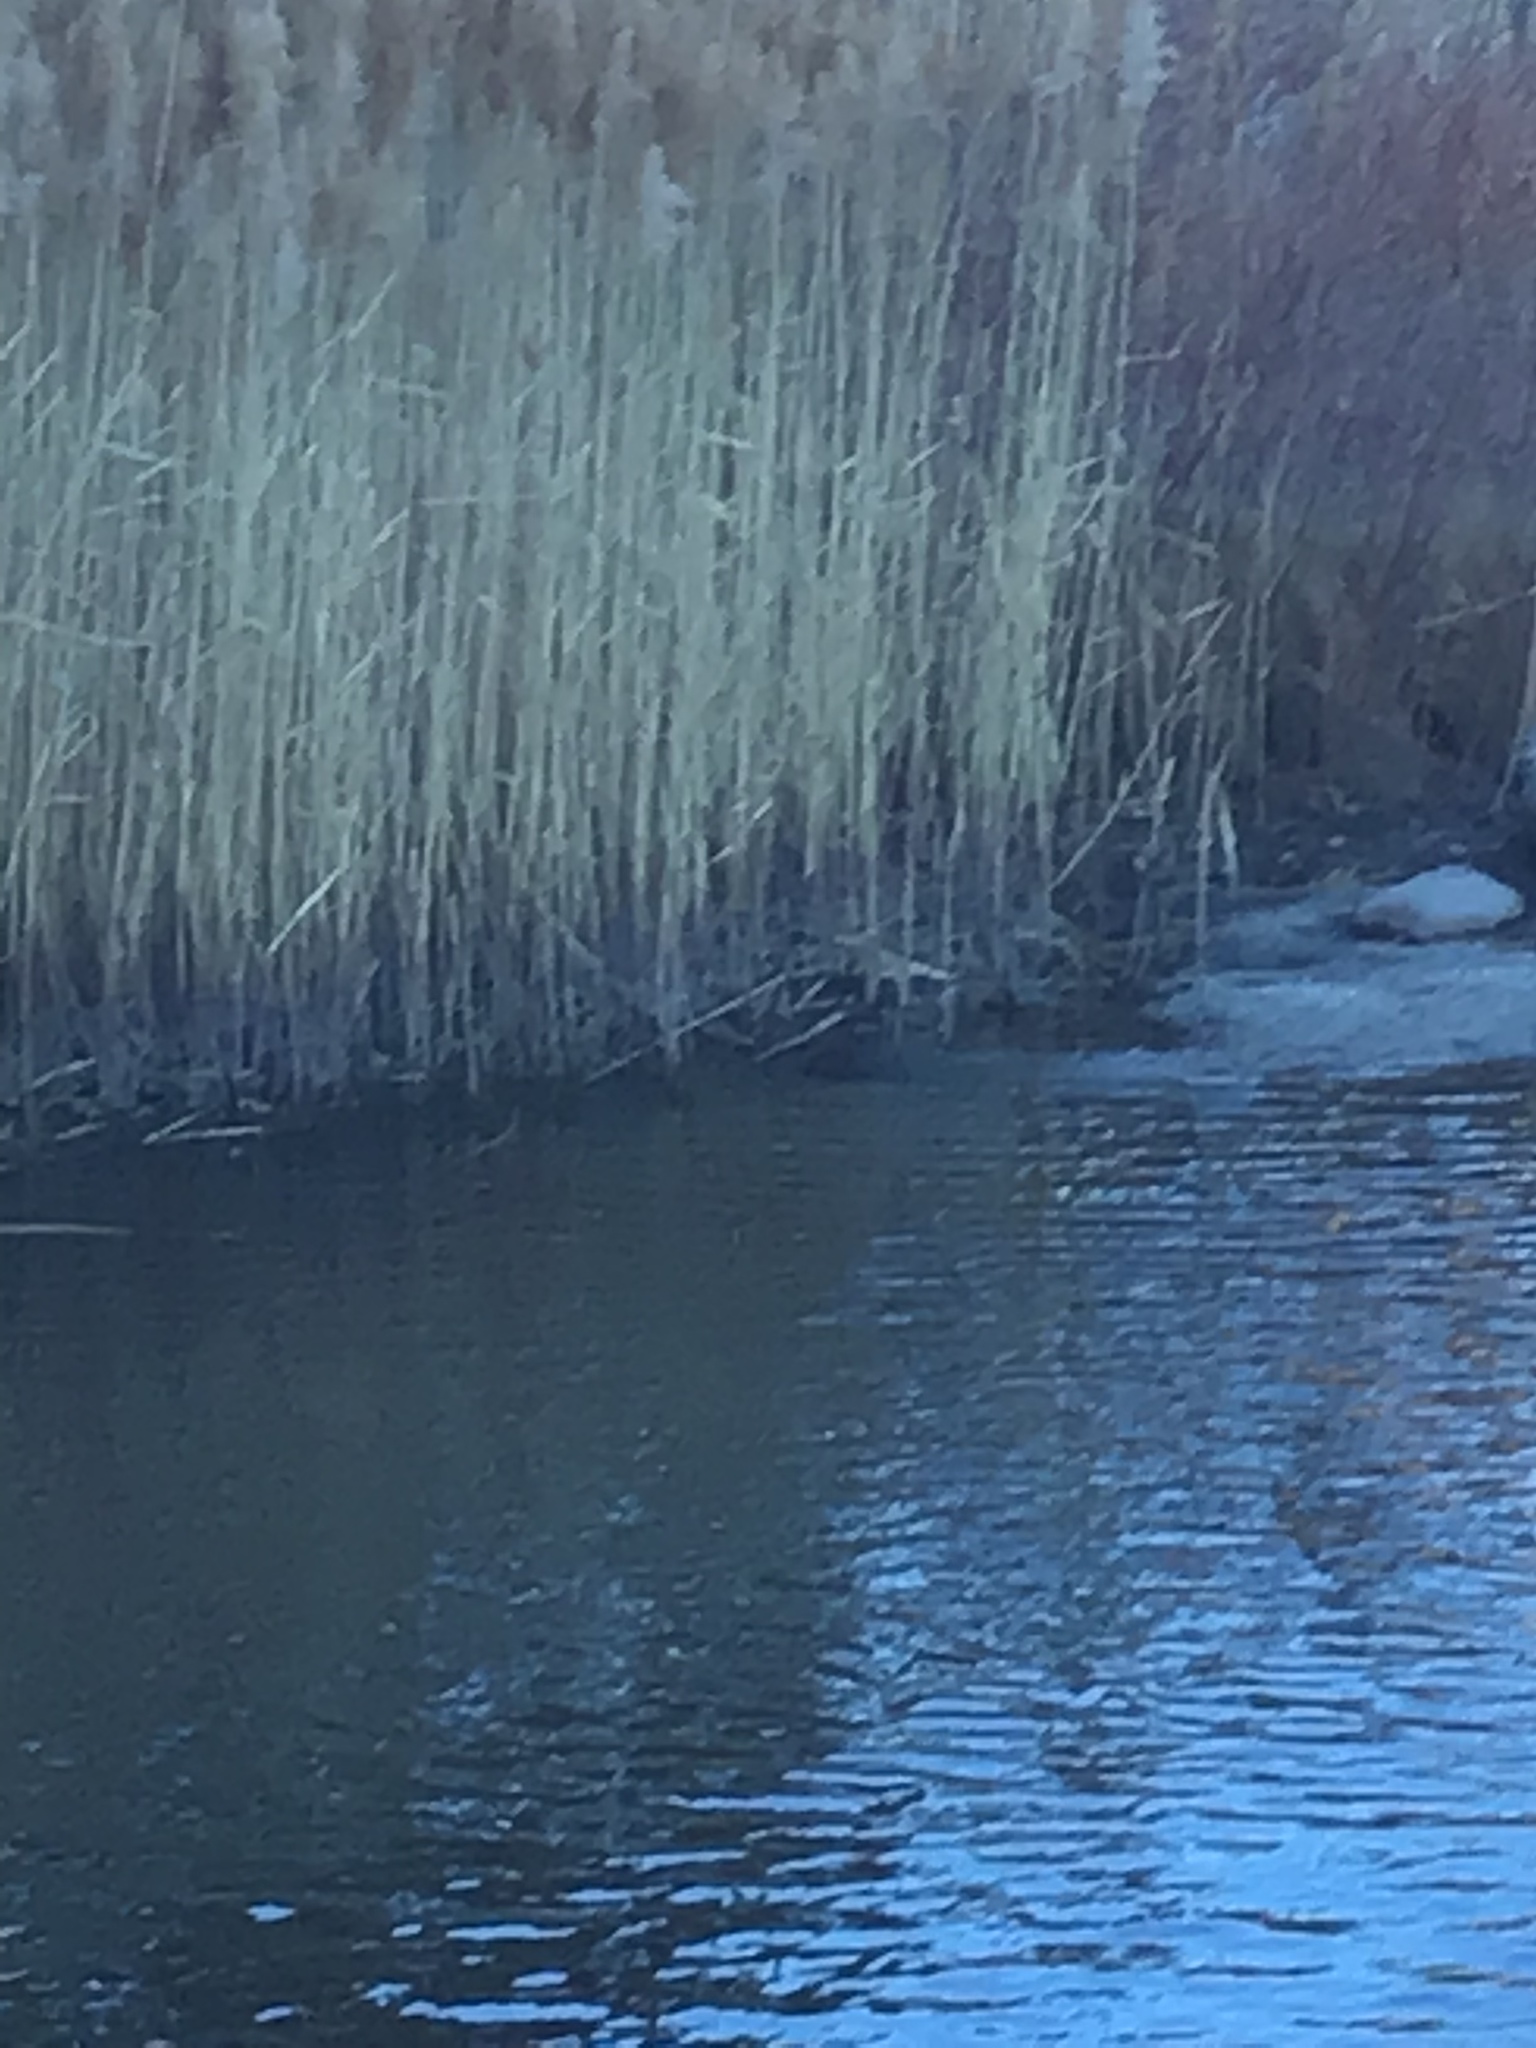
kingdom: Animalia
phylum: Chordata
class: Mammalia
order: Rodentia
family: Cricetidae
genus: Ondatra
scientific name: Ondatra zibethicus
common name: Muskrat
